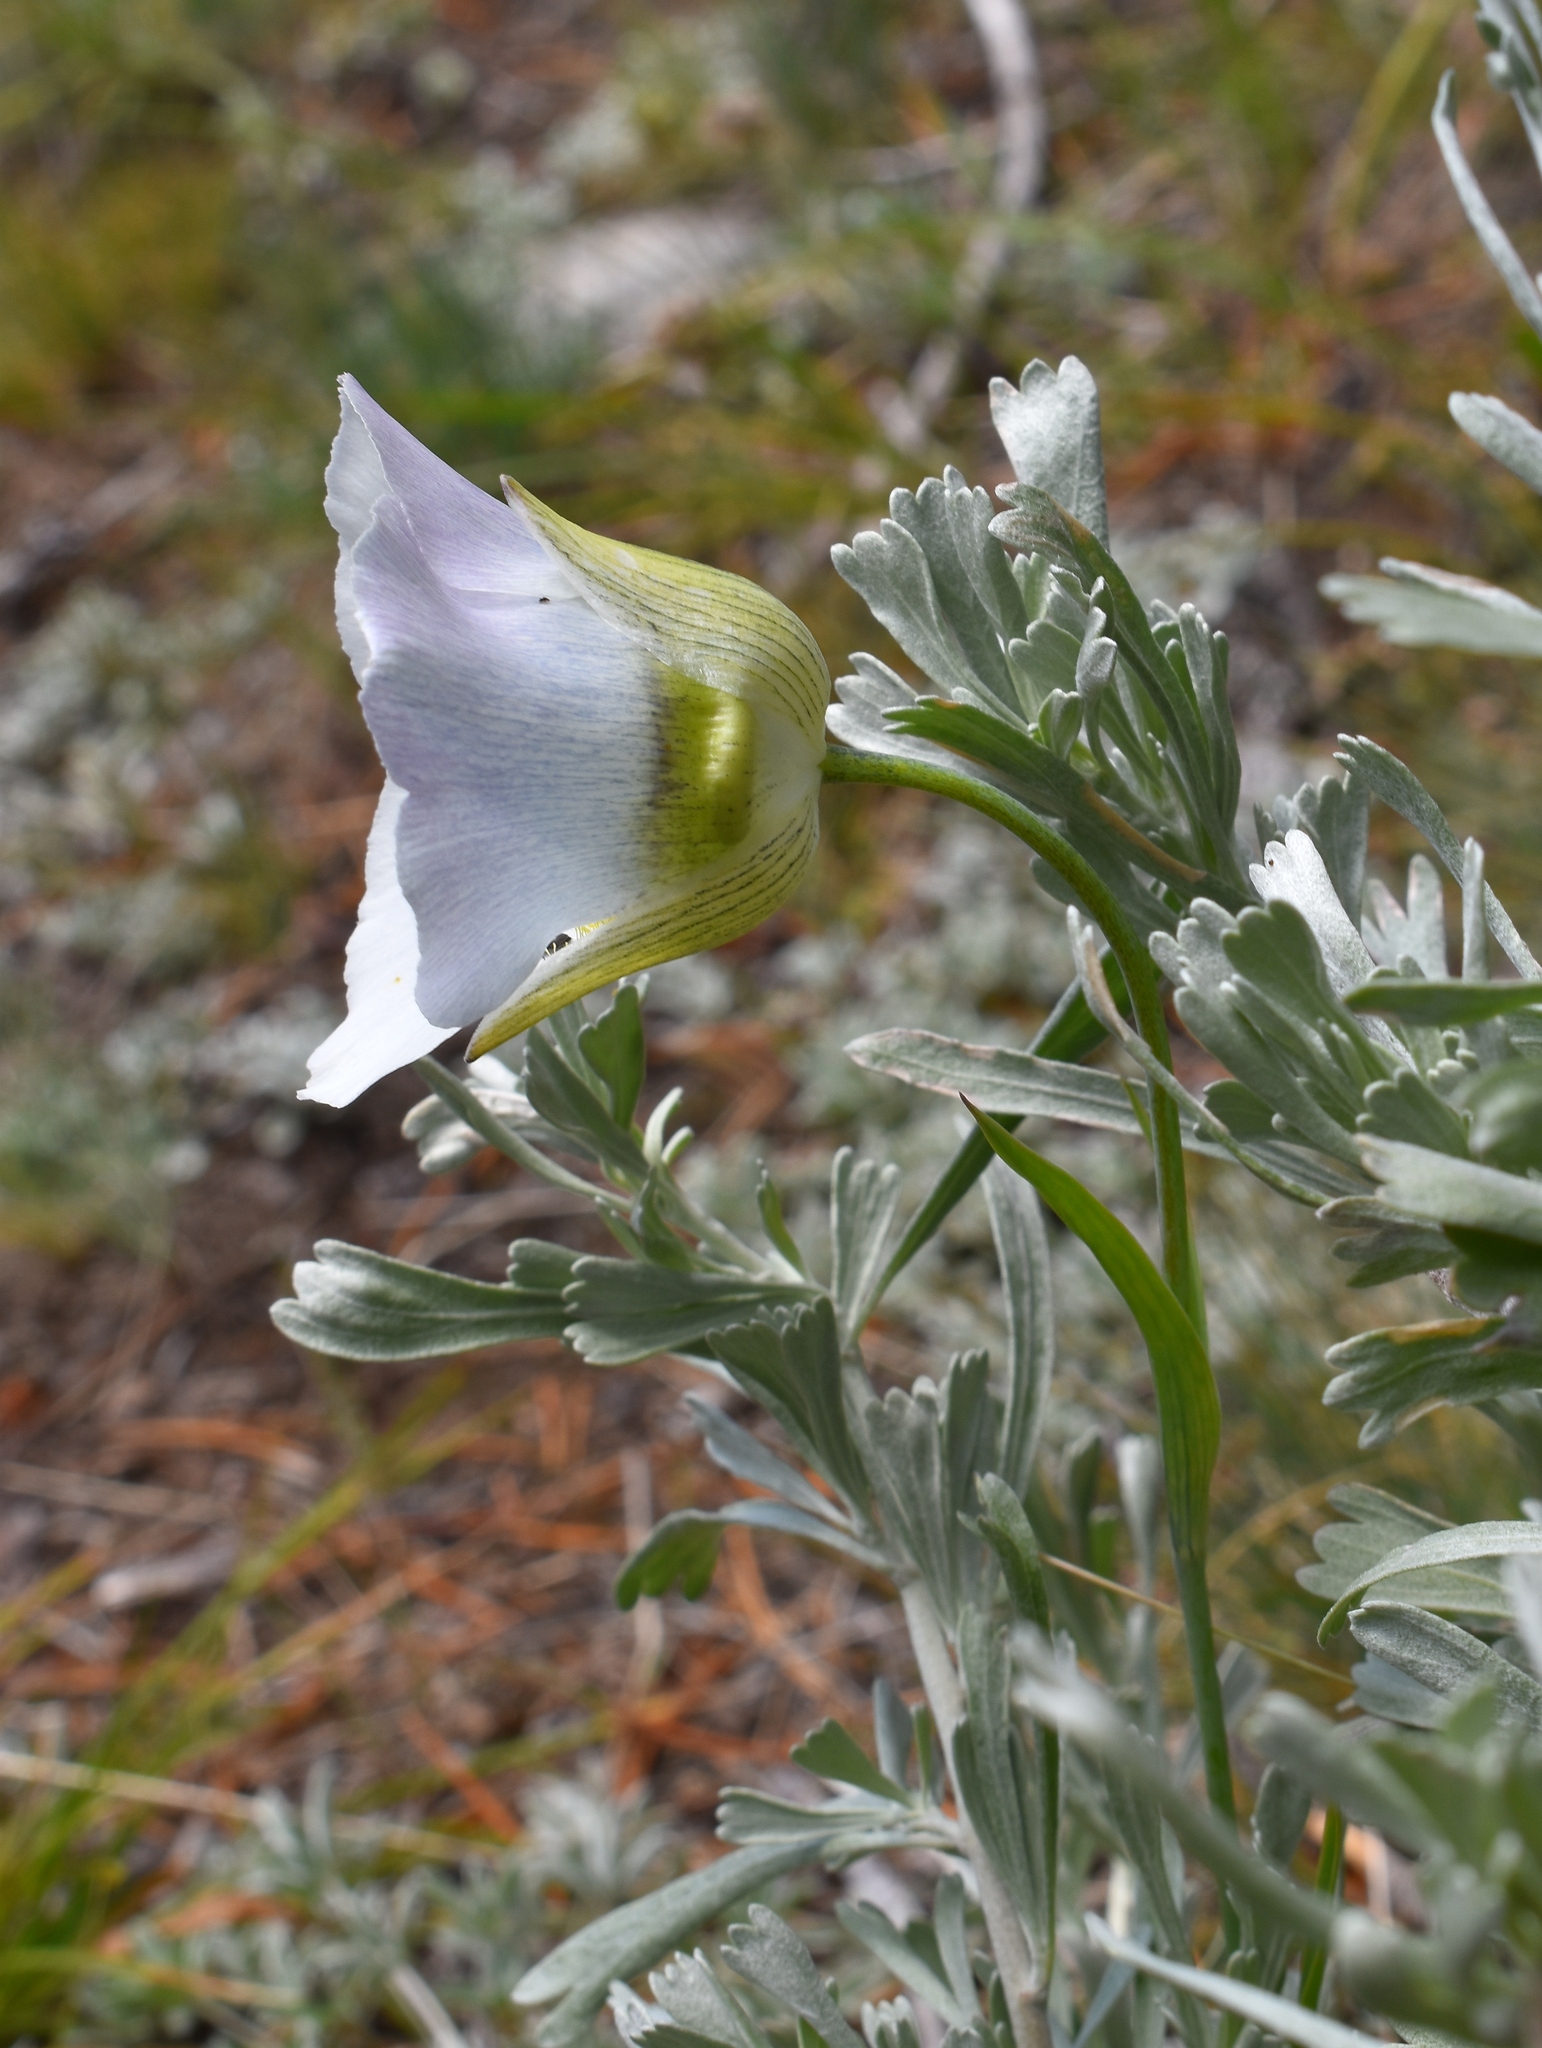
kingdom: Plantae
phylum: Tracheophyta
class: Liliopsida
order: Liliales
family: Liliaceae
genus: Calochortus
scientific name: Calochortus gunnisonii
